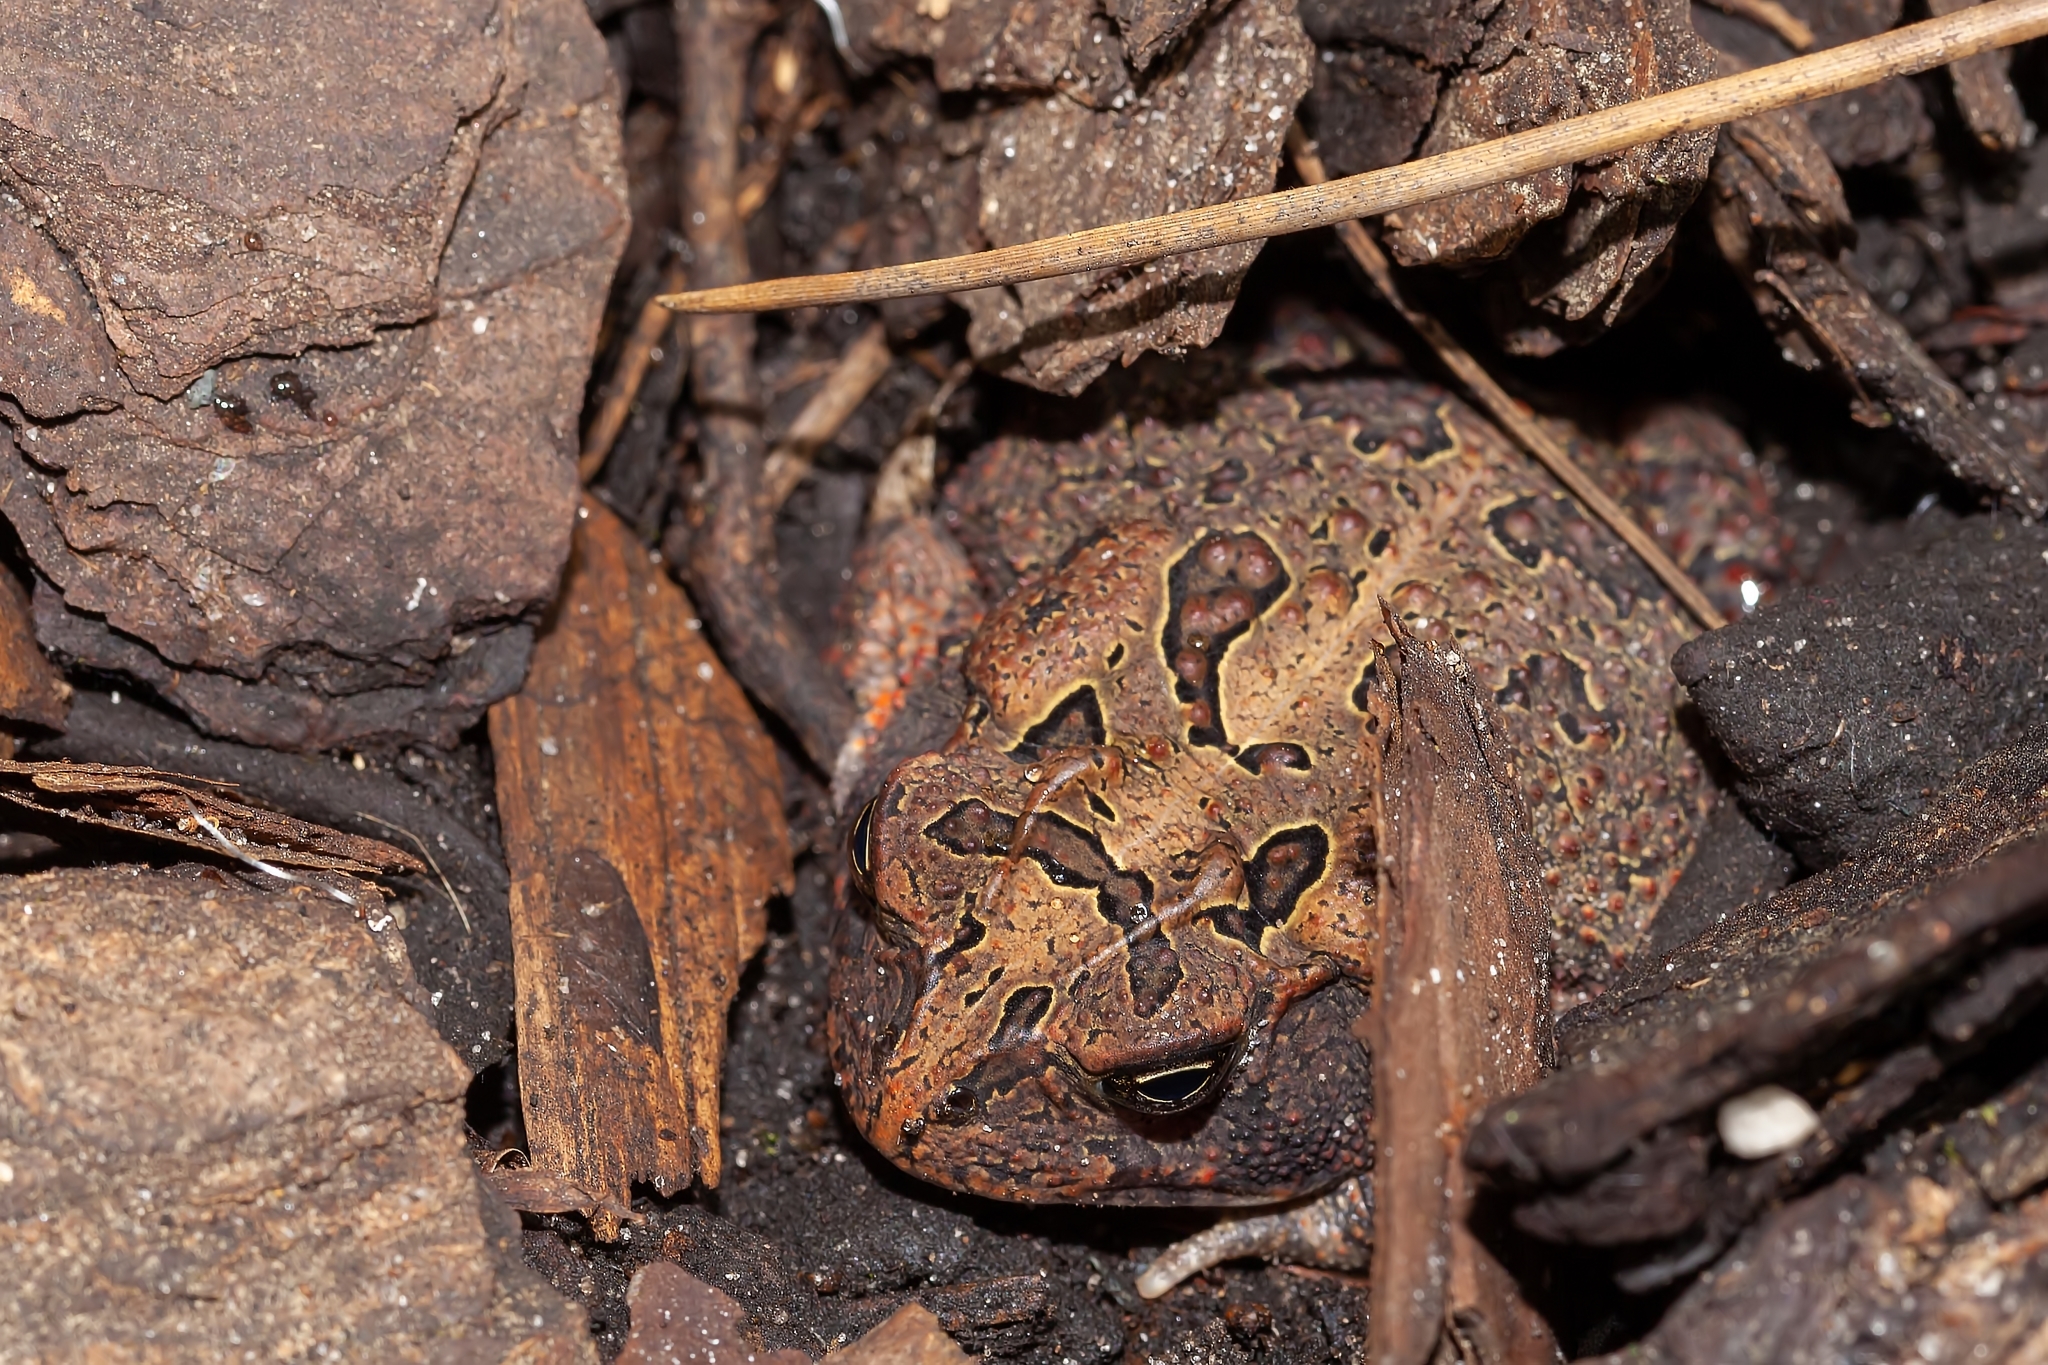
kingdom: Animalia
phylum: Chordata
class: Amphibia
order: Anura
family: Bufonidae
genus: Anaxyrus
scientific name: Anaxyrus terrestris
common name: Southern toad
